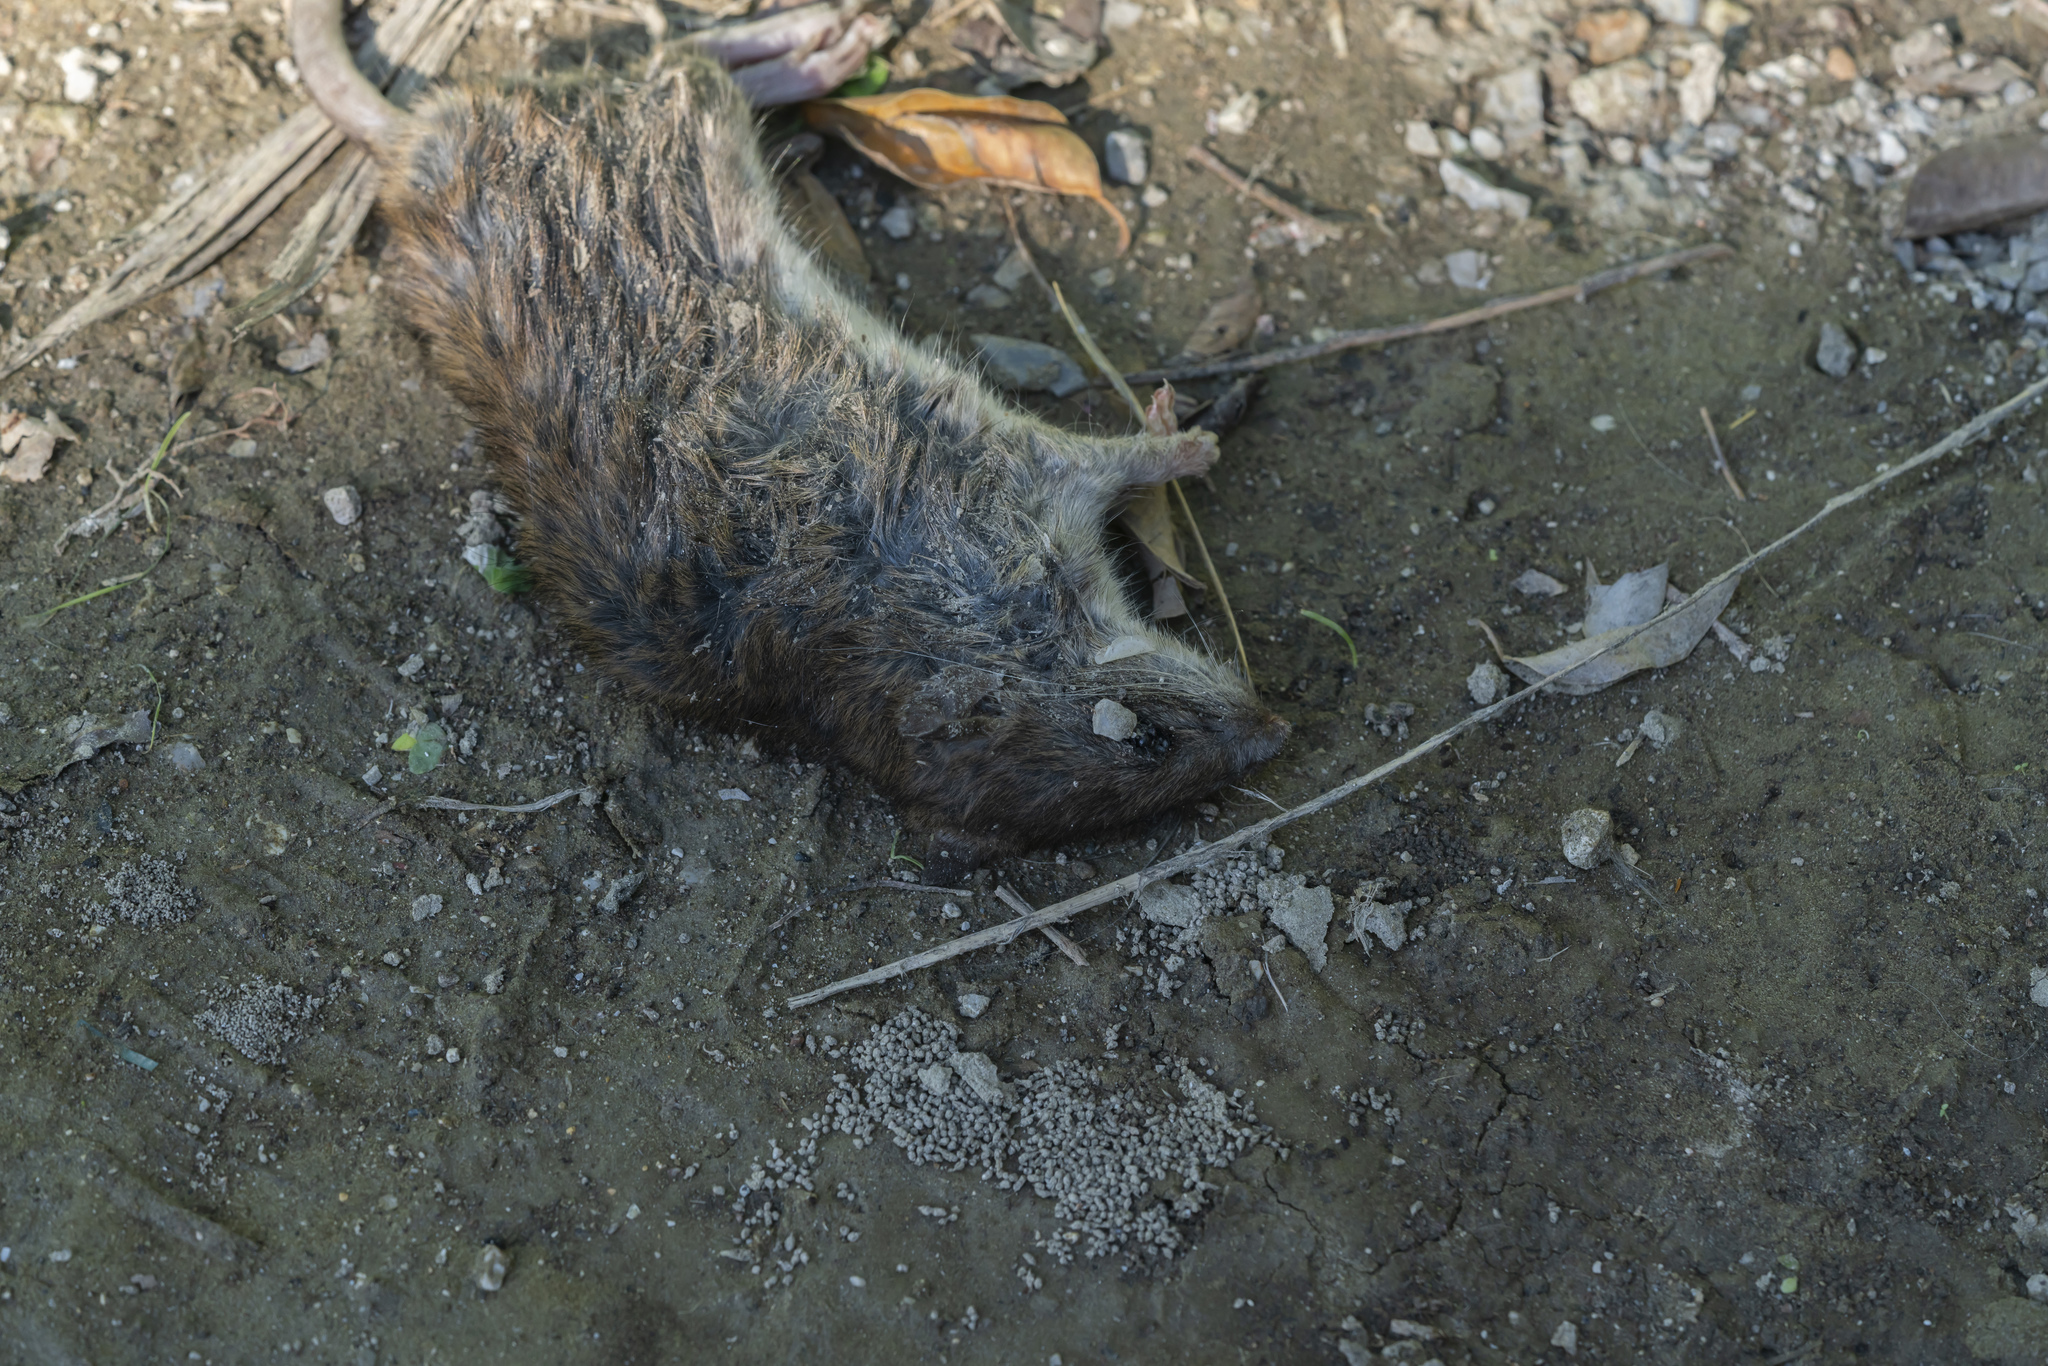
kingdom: Animalia
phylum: Chordata
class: Mammalia
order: Rodentia
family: Muridae
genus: Rattus
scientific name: Rattus
